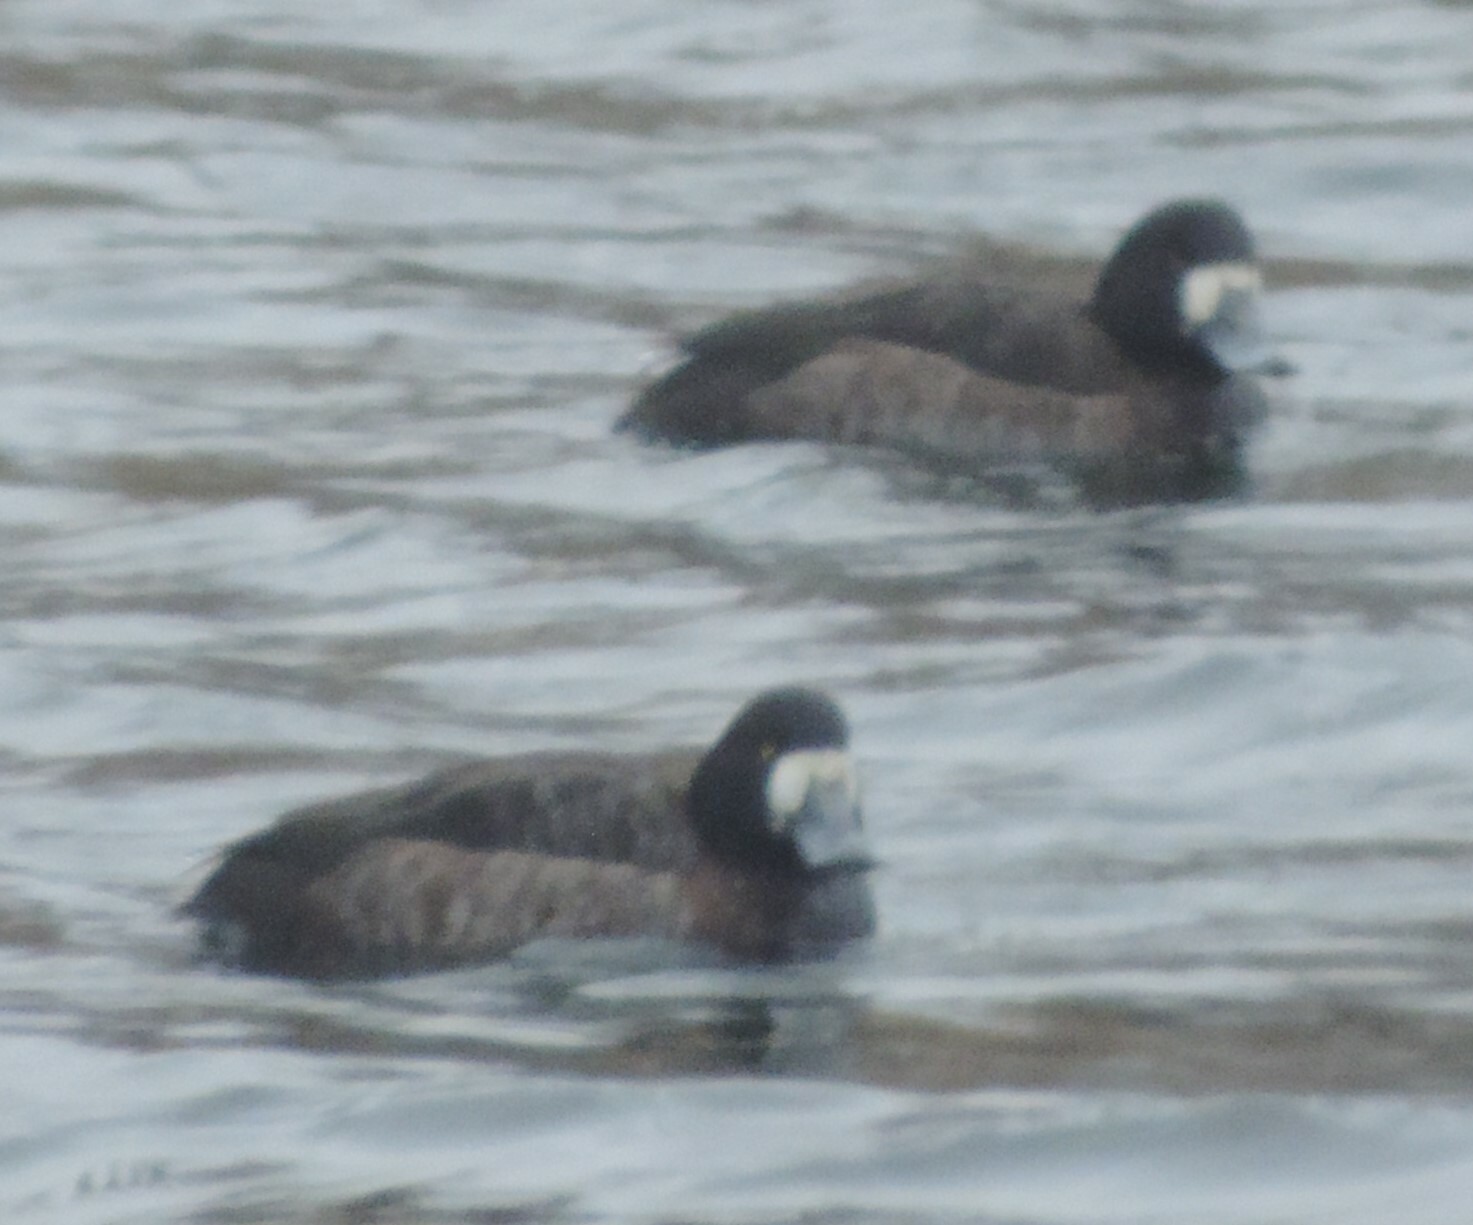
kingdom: Animalia
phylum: Chordata
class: Aves
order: Anseriformes
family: Anatidae
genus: Aythya
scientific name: Aythya marila
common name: Greater scaup
